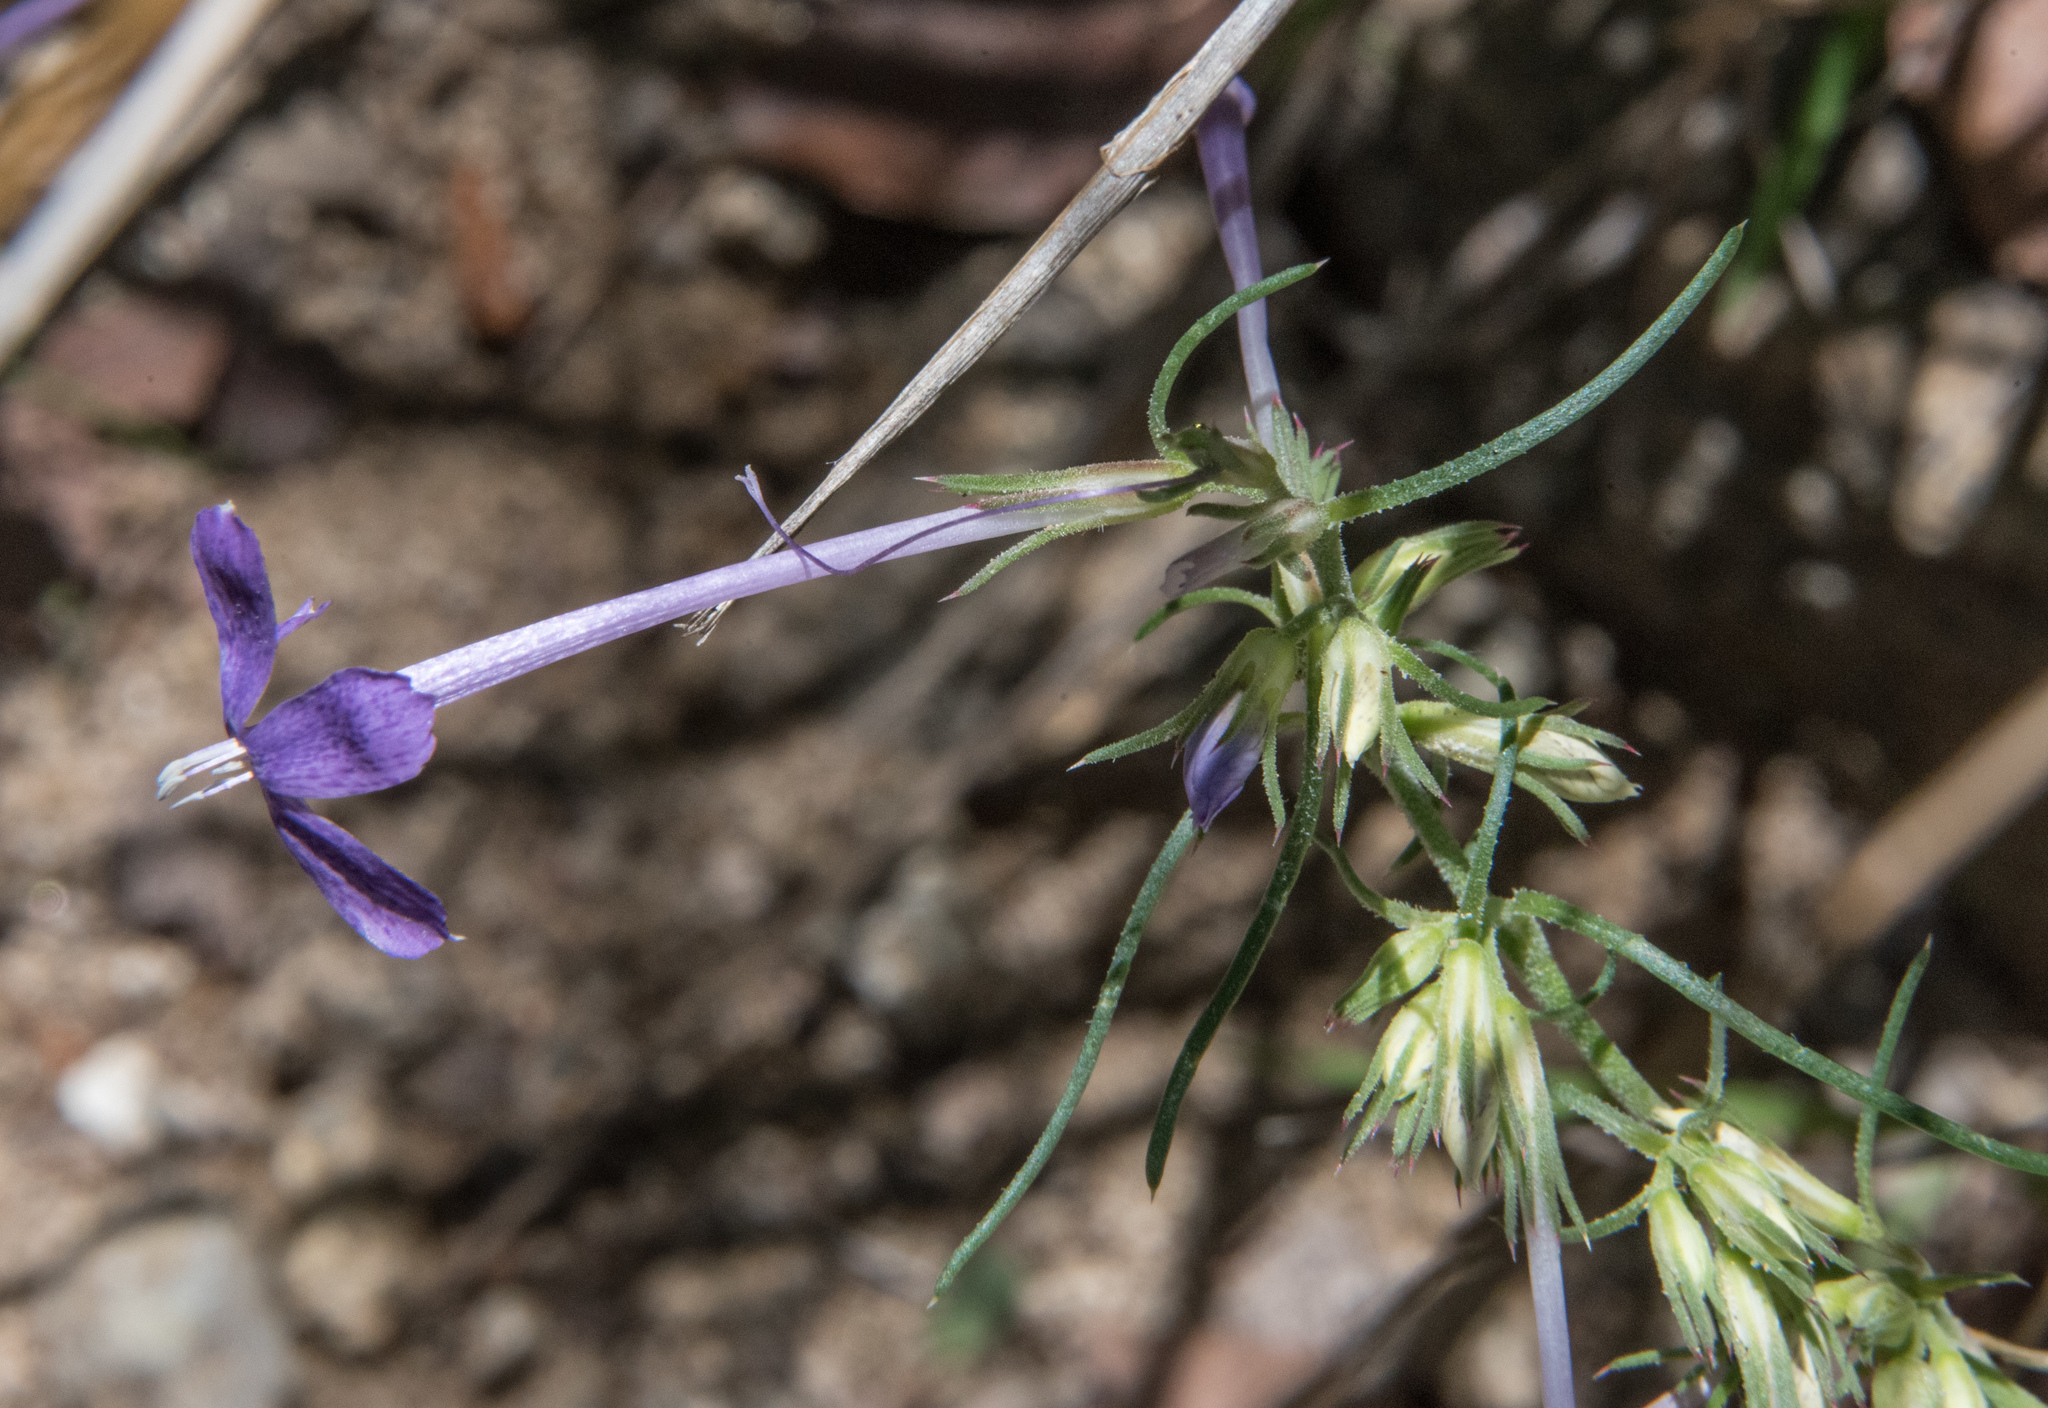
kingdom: Plantae
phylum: Tracheophyta
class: Magnoliopsida
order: Ericales
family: Polemoniaceae
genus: Ipomopsis
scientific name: Ipomopsis thurberi
